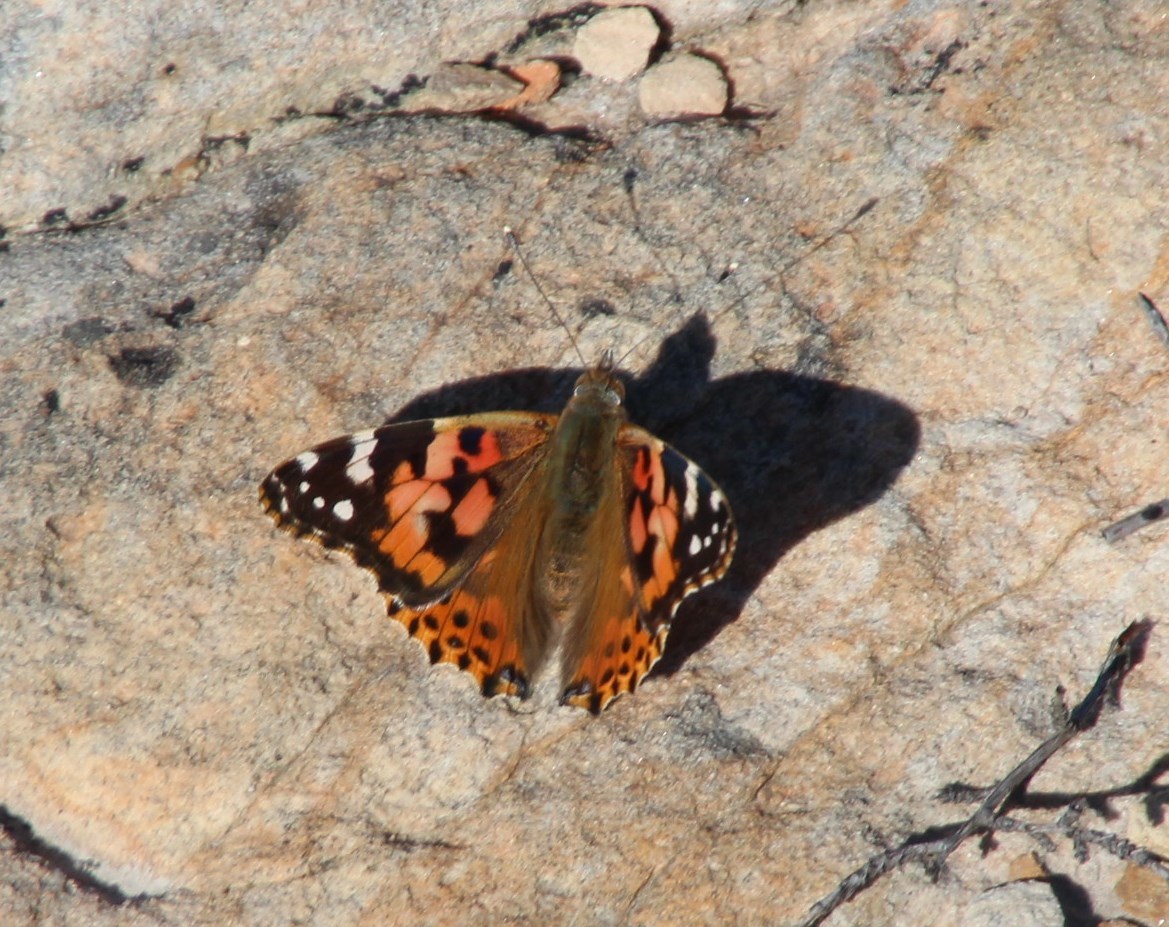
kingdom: Animalia
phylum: Arthropoda
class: Insecta
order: Lepidoptera
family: Nymphalidae
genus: Vanessa
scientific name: Vanessa cardui
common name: Painted lady
